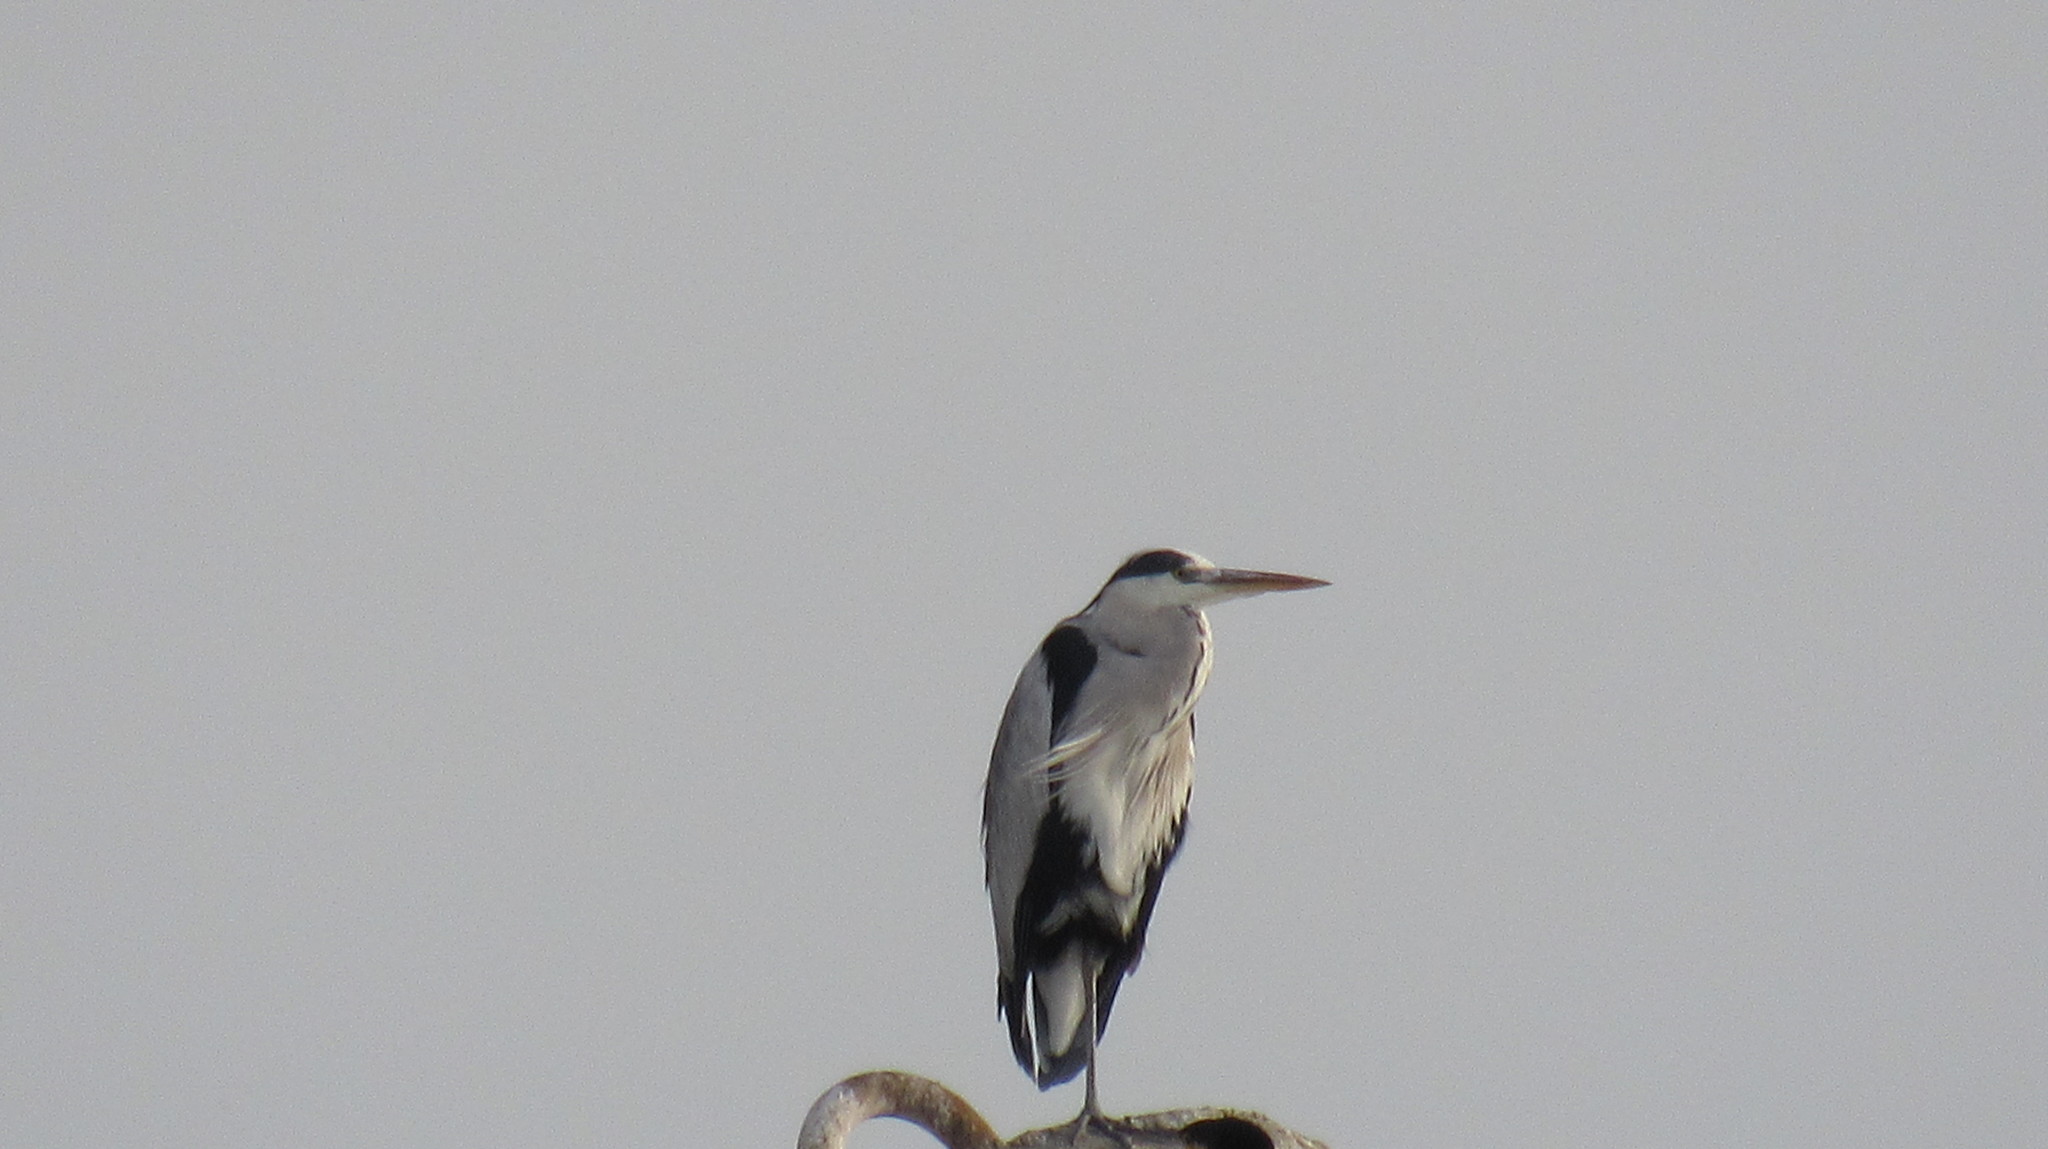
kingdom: Animalia
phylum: Chordata
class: Aves
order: Pelecaniformes
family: Ardeidae
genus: Ardea
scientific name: Ardea cinerea
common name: Grey heron
